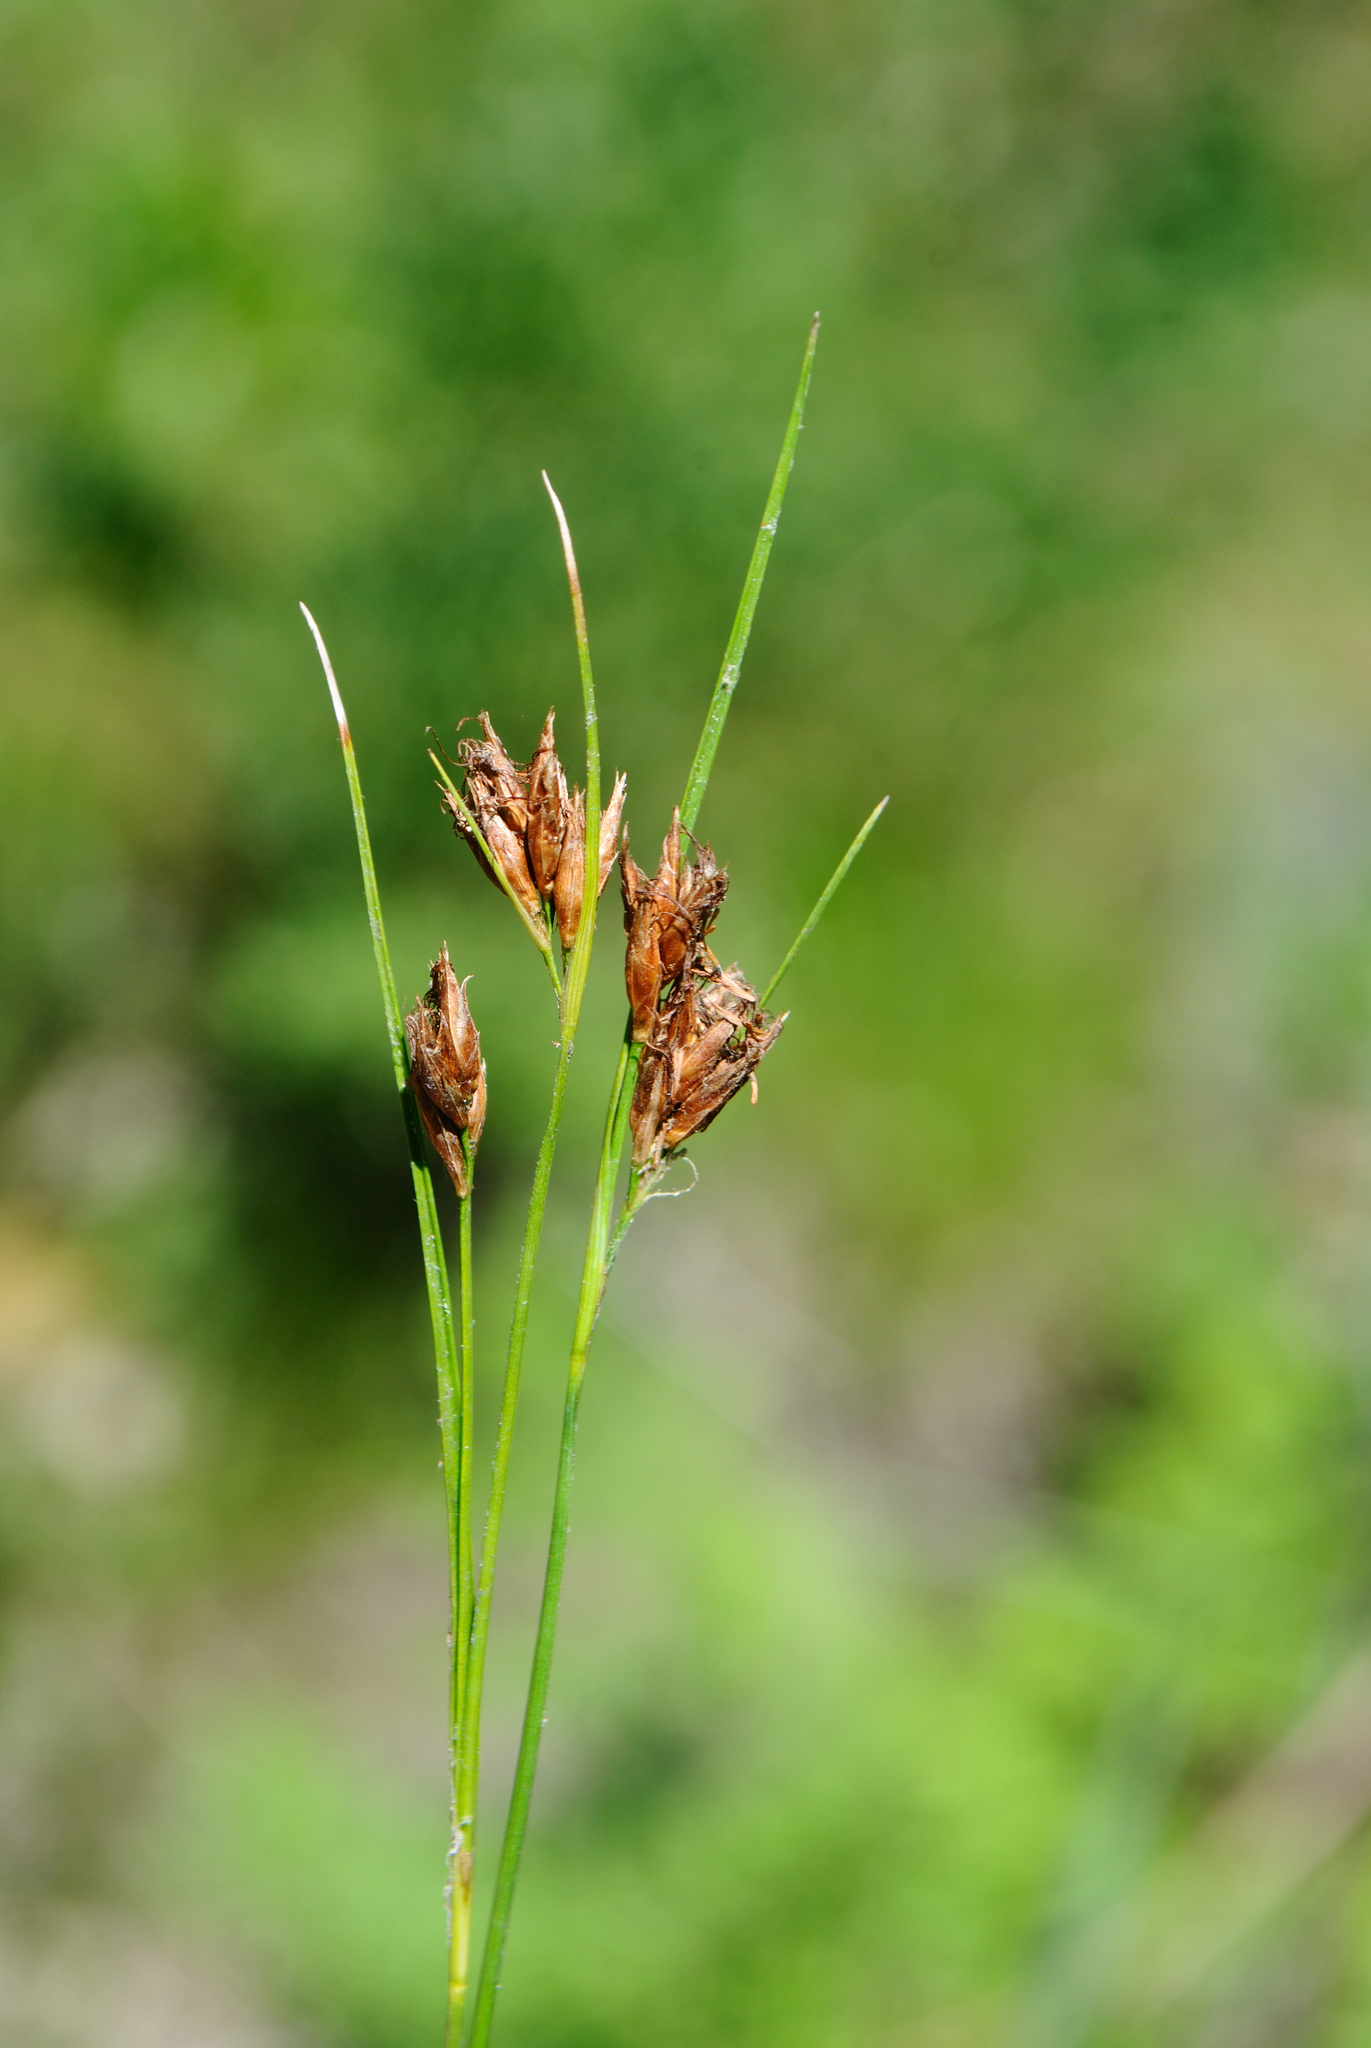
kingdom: Plantae
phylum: Tracheophyta
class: Liliopsida
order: Poales
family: Cyperaceae
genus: Rhynchospora
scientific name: Rhynchospora capitellata
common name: Brownish beaksedge
